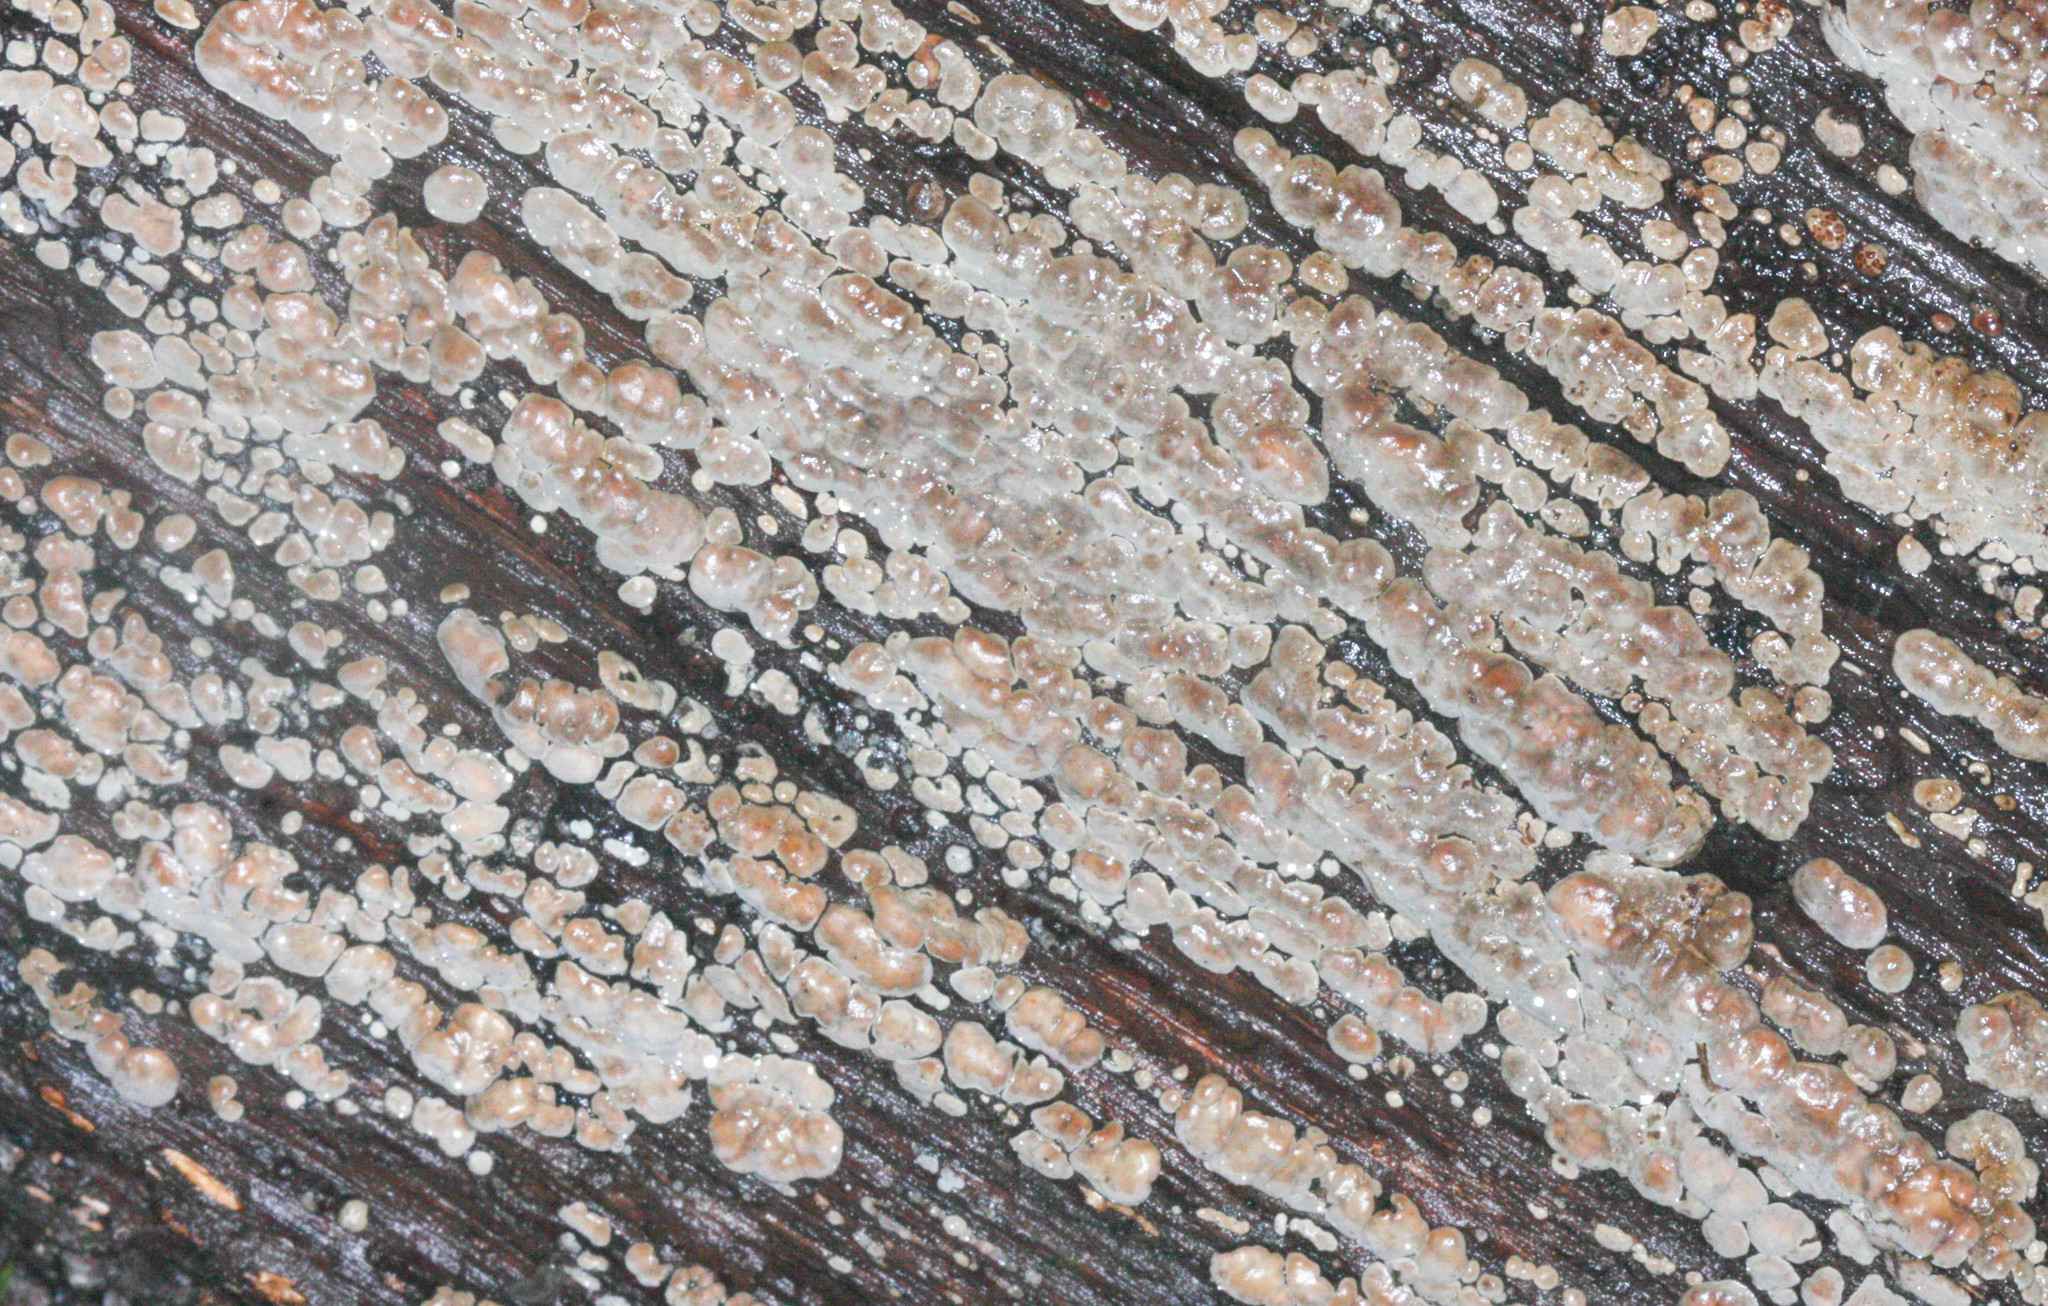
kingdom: Fungi
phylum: Basidiomycota
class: Agaricomycetes
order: Russulales
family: Stereaceae
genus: Xylobolus
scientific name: Xylobolus frustulatus
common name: Ceramic parchment
